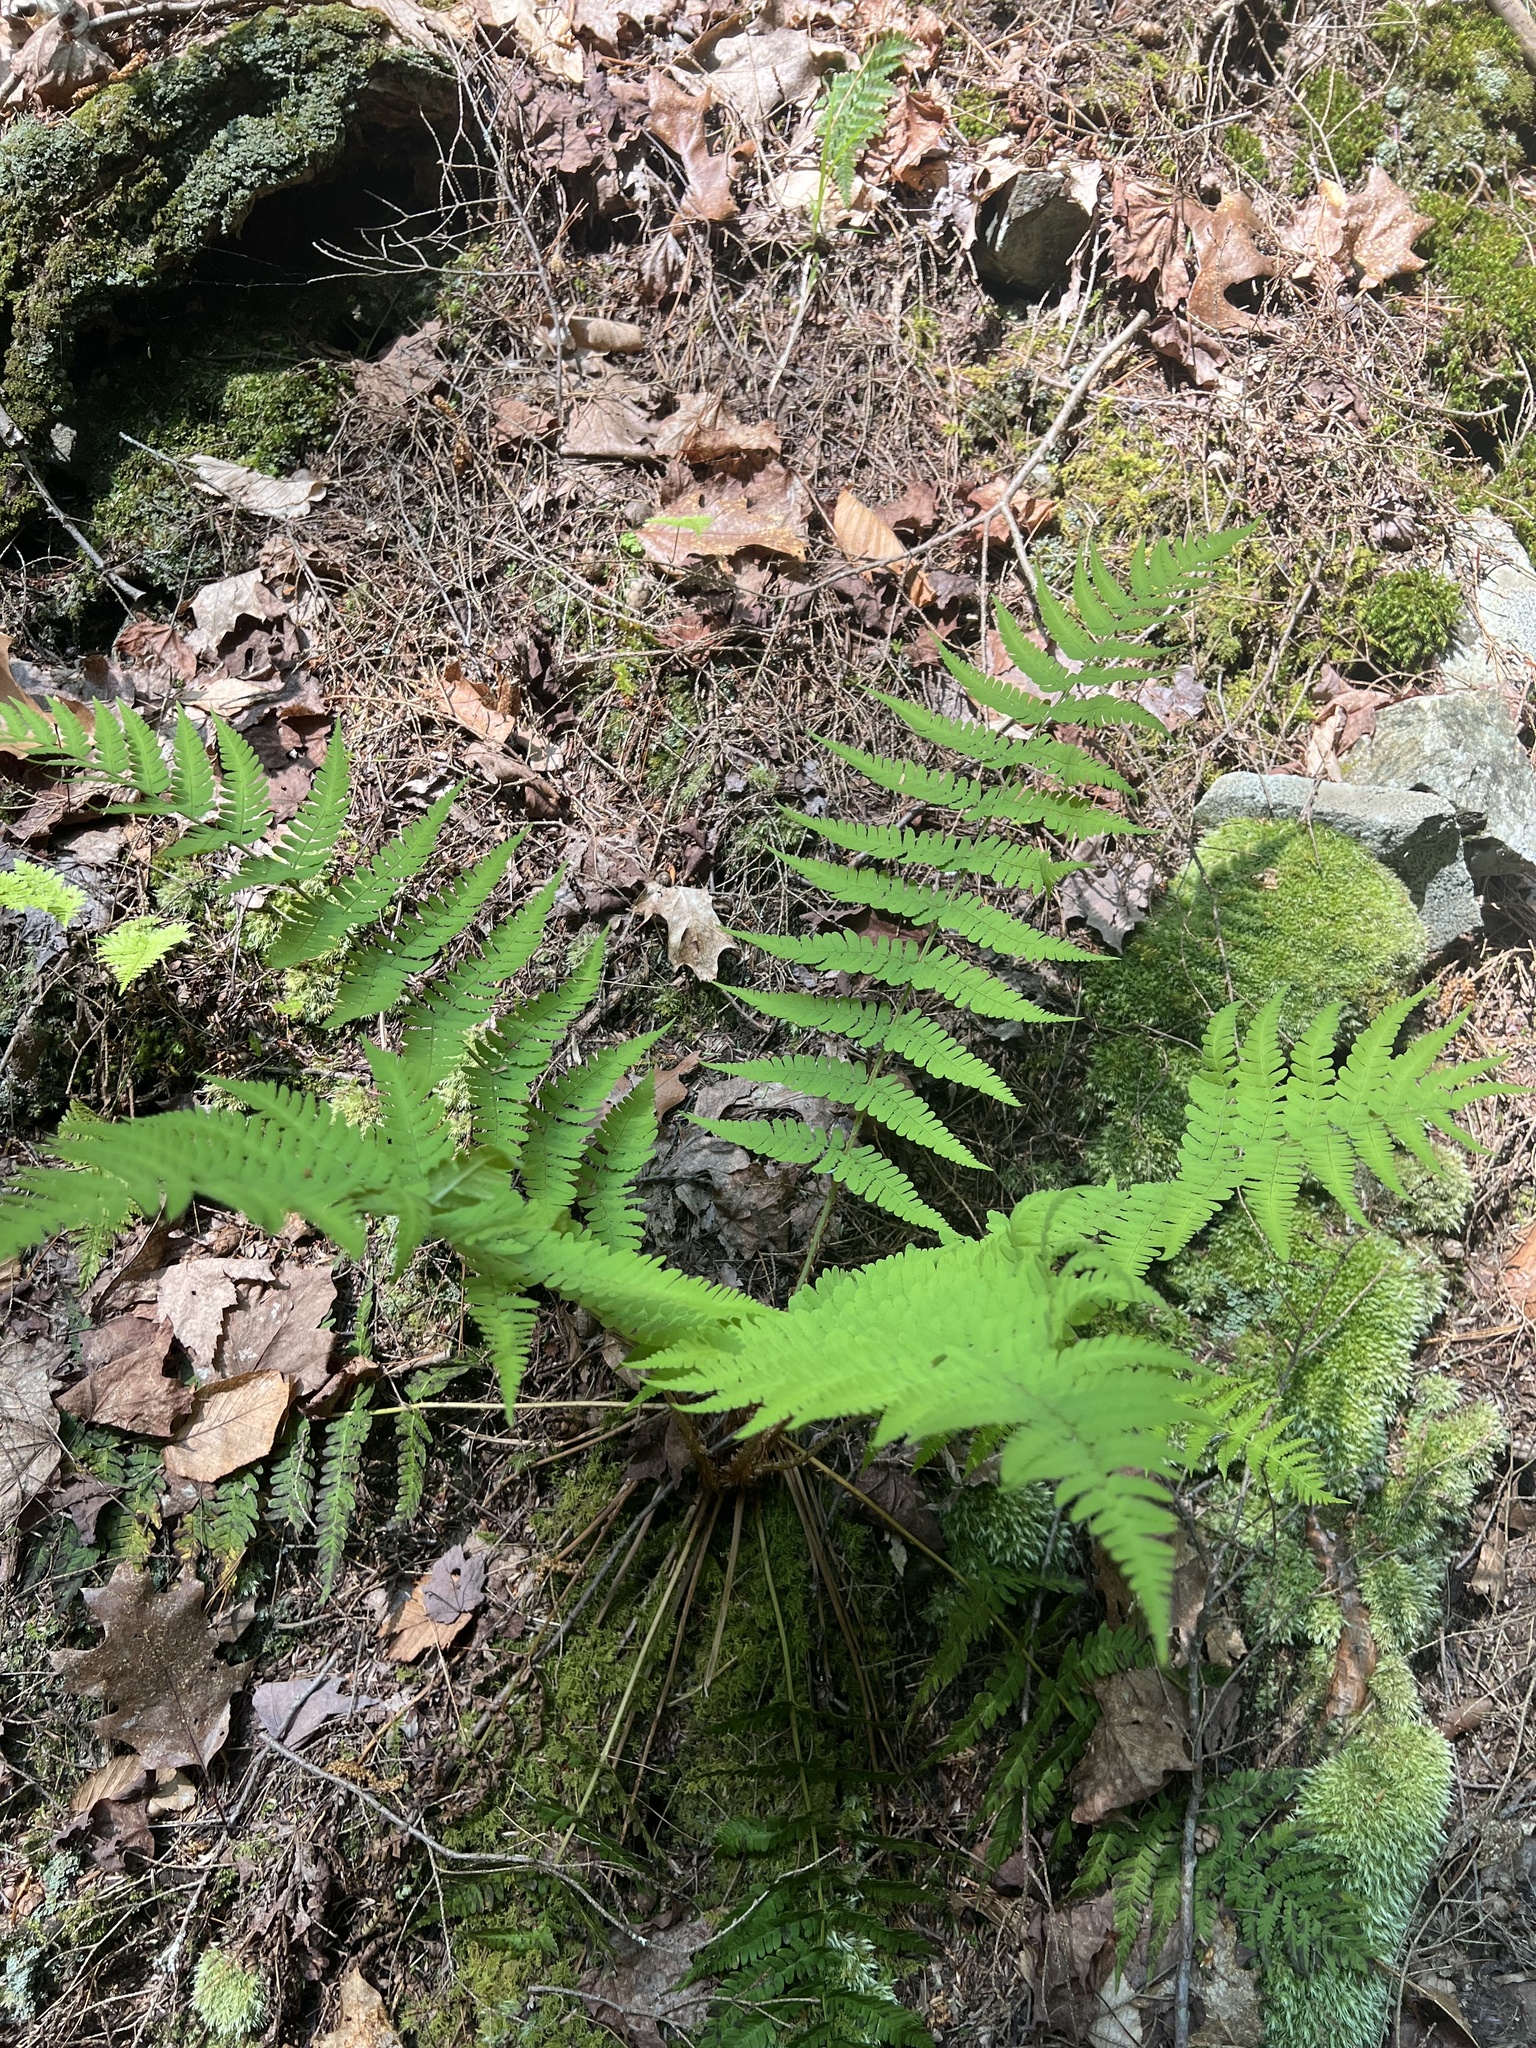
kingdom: Plantae
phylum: Tracheophyta
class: Polypodiopsida
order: Polypodiales
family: Dryopteridaceae
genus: Dryopteris
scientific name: Dryopteris marginalis
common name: Marginal wood fern
